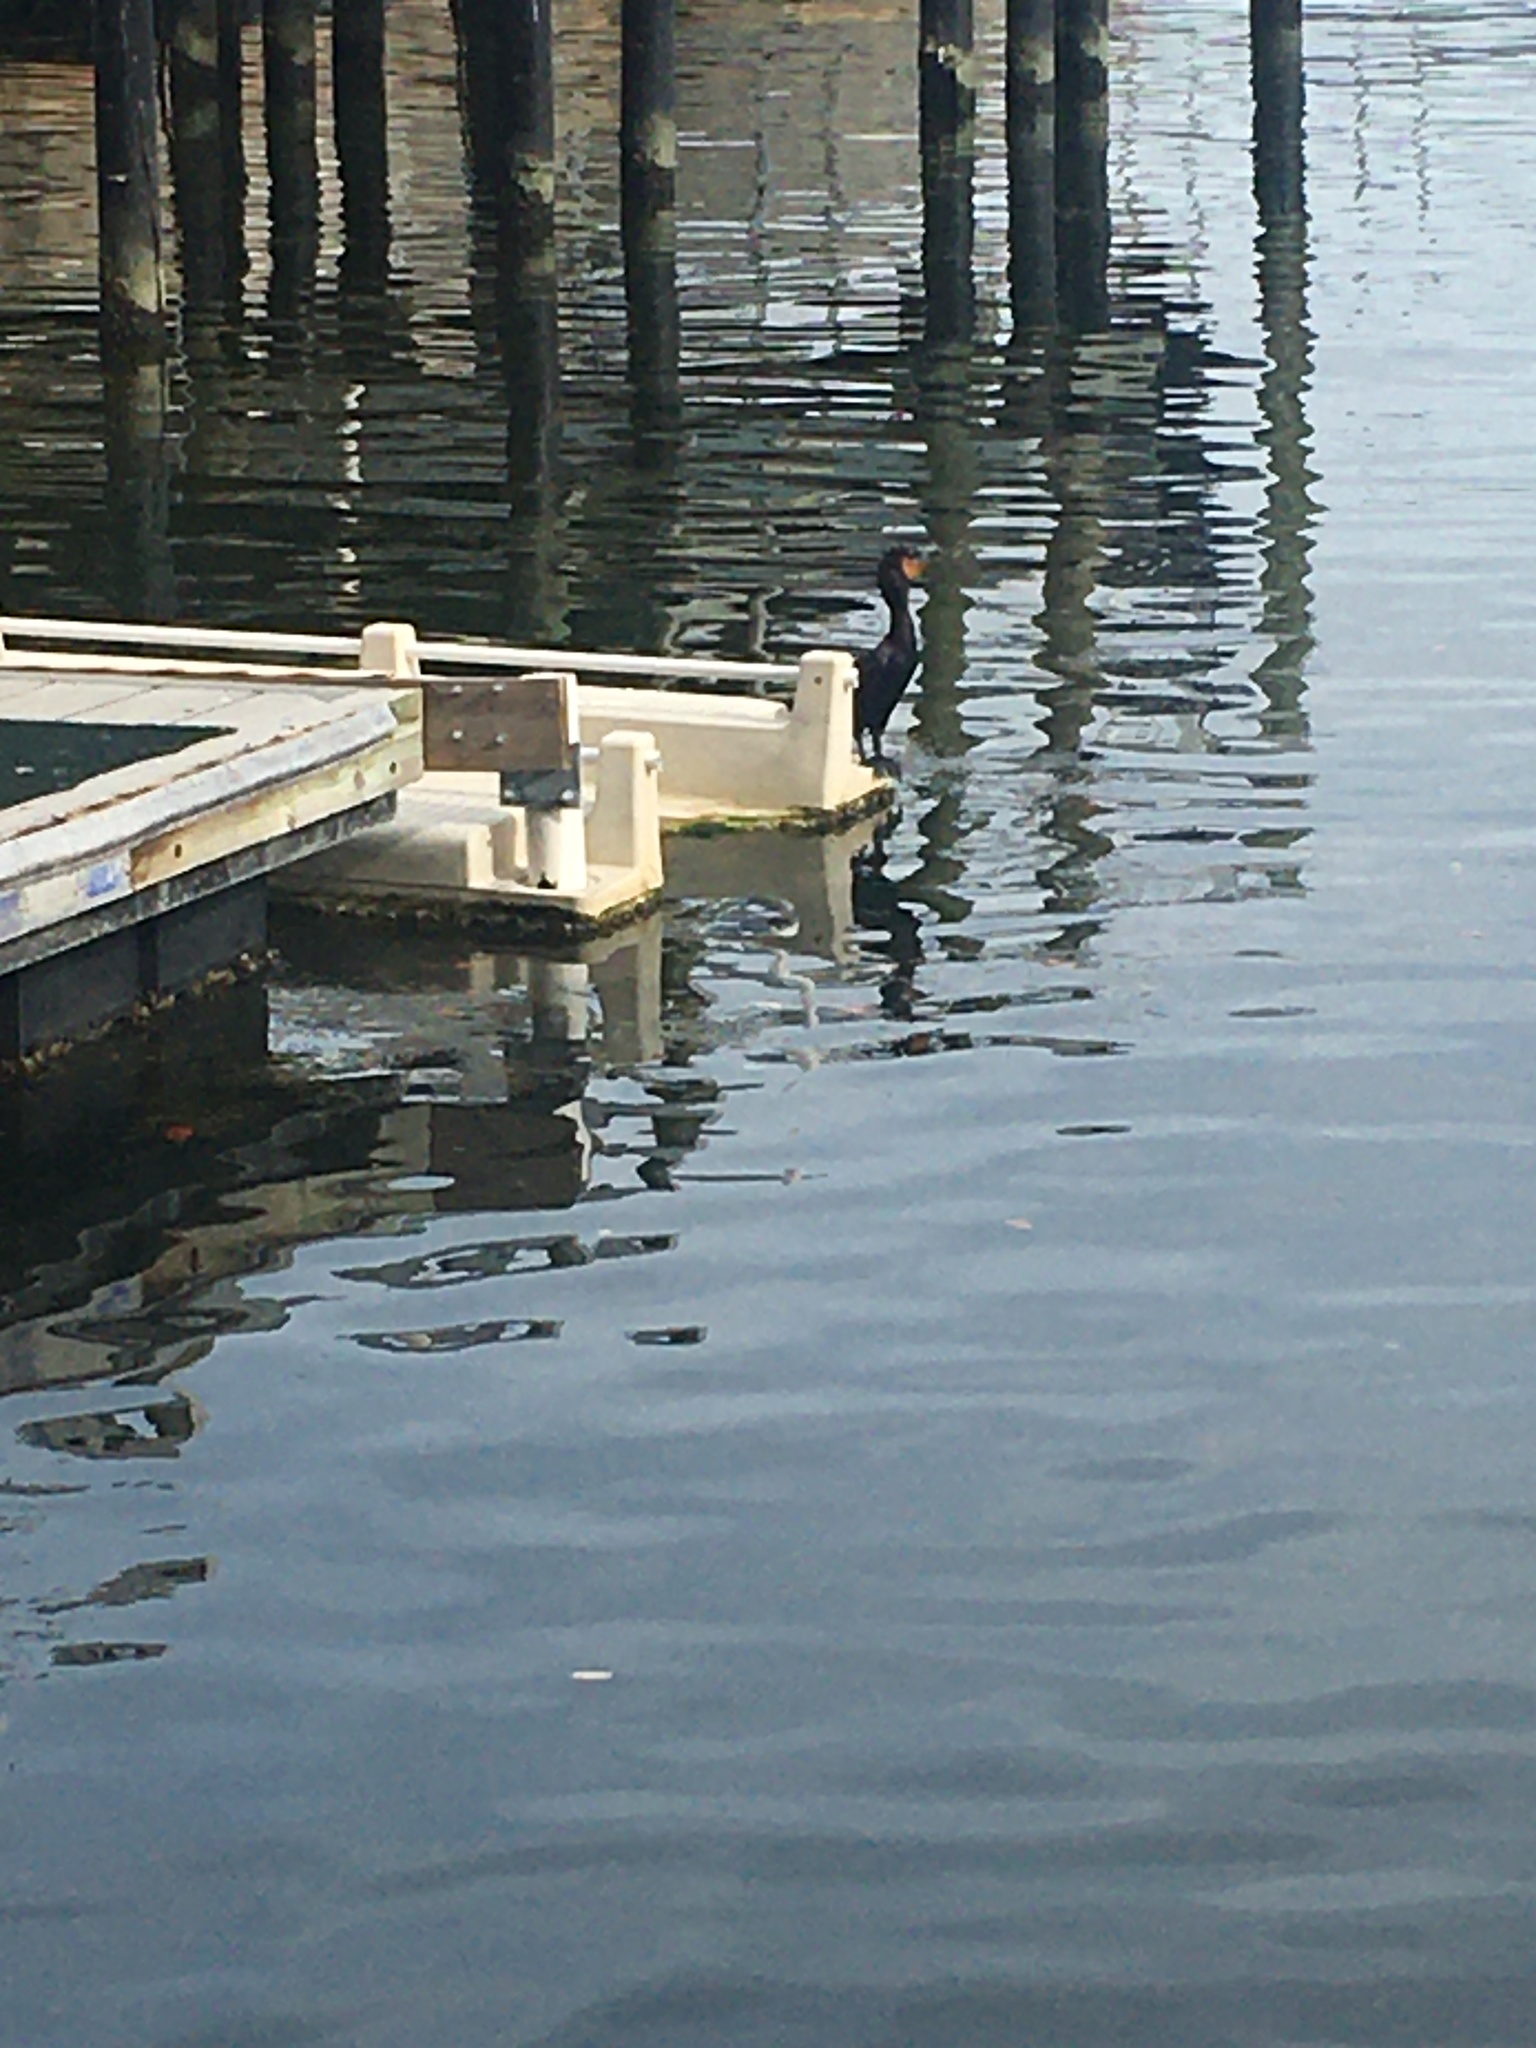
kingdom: Animalia
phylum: Chordata
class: Aves
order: Suliformes
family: Phalacrocoracidae
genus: Phalacrocorax
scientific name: Phalacrocorax auritus
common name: Double-crested cormorant
